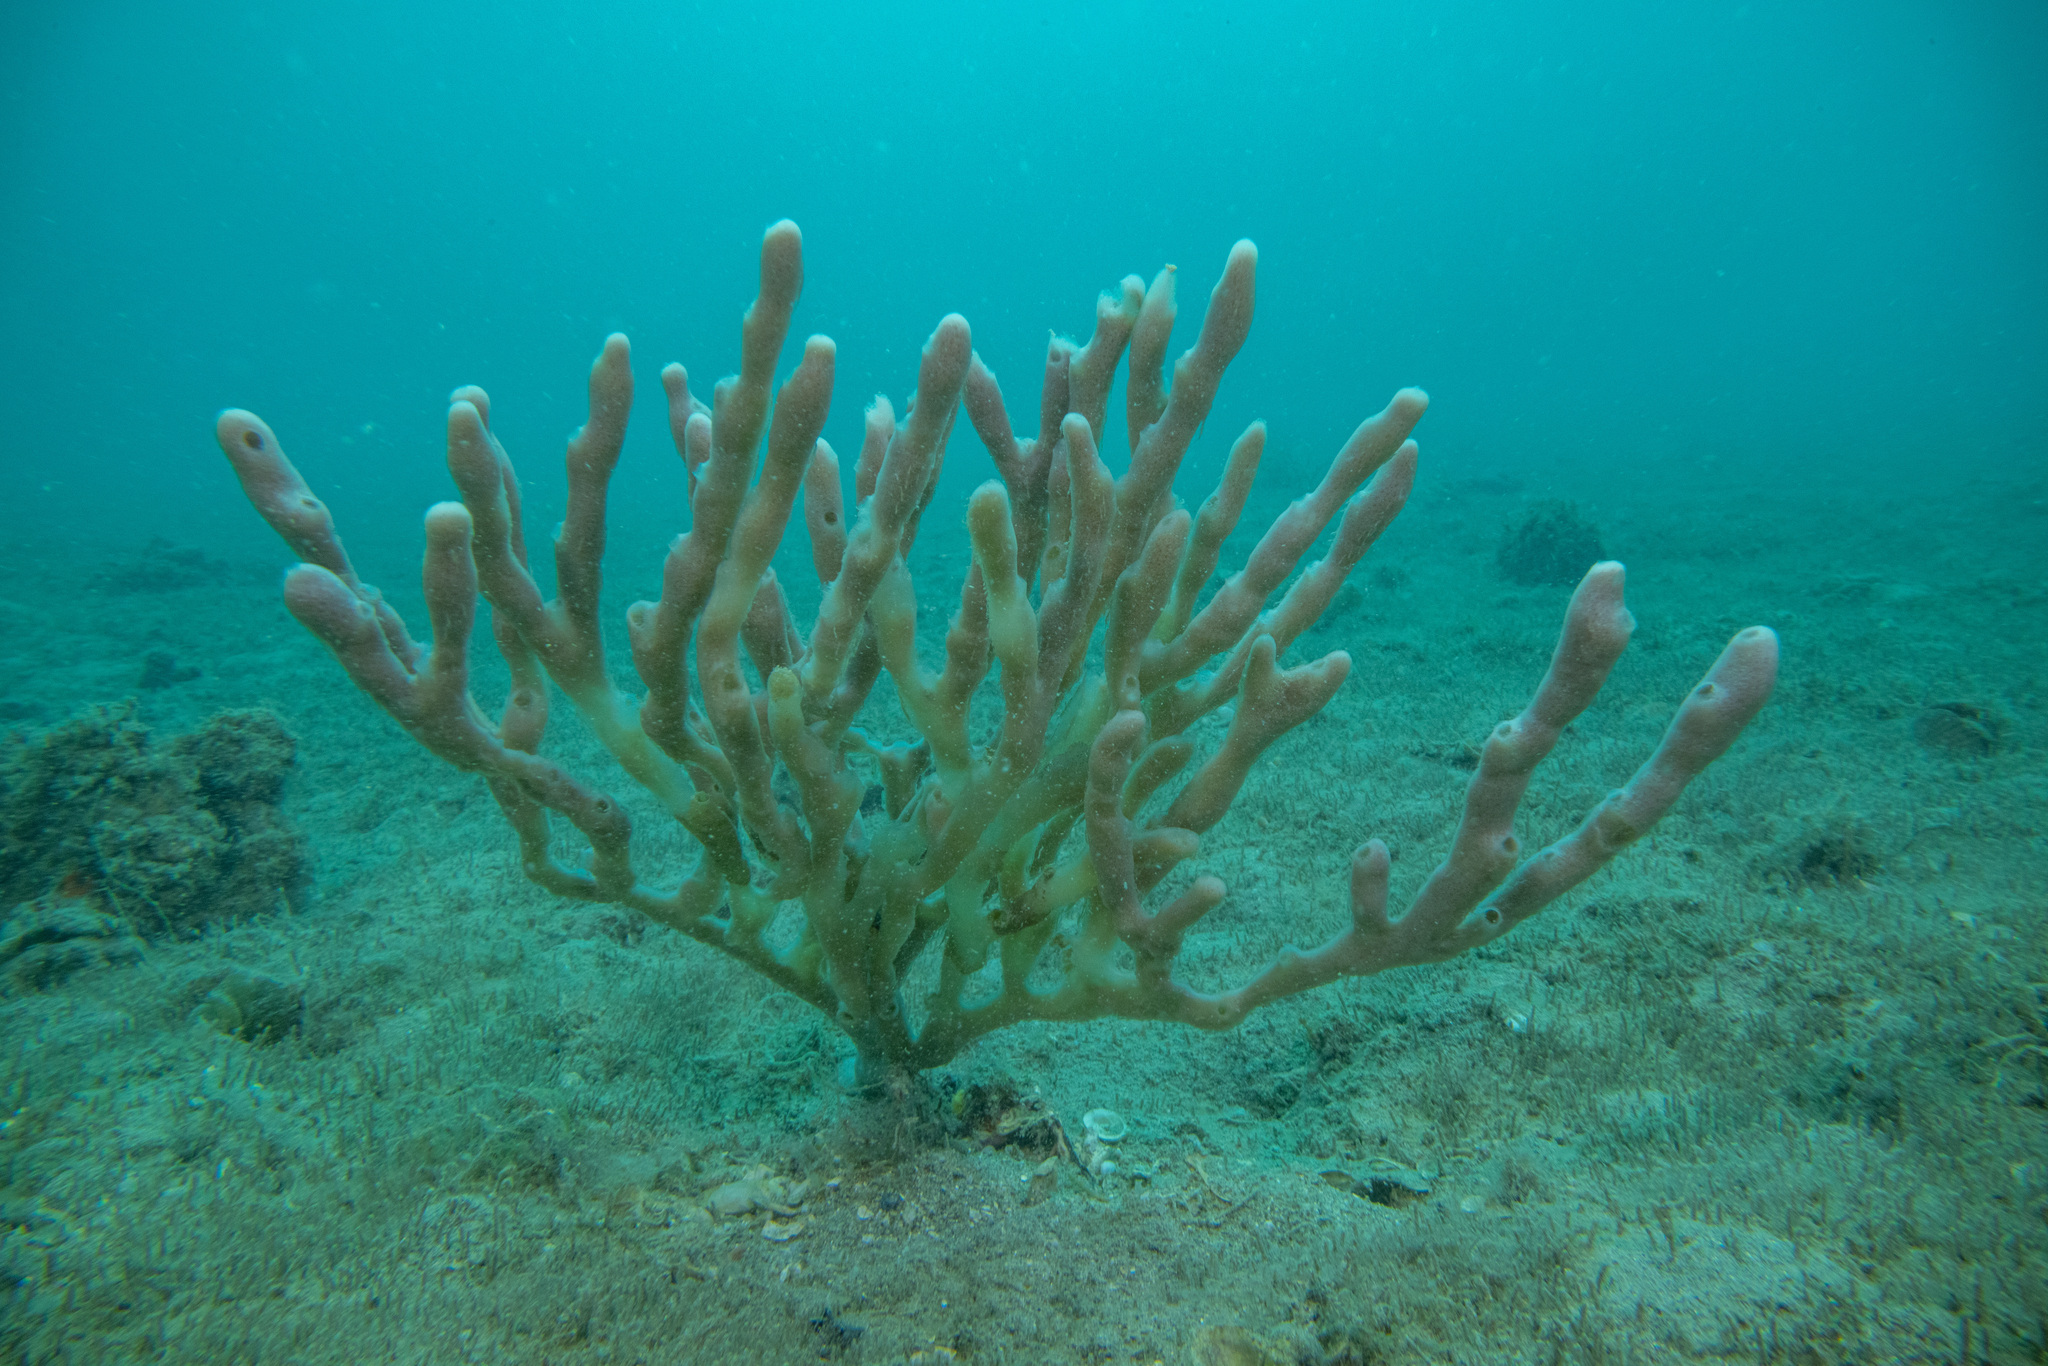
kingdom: Animalia
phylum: Porifera
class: Demospongiae
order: Haplosclerida
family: Callyspongiidae
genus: Callyspongia
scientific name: Callyspongia nuda
